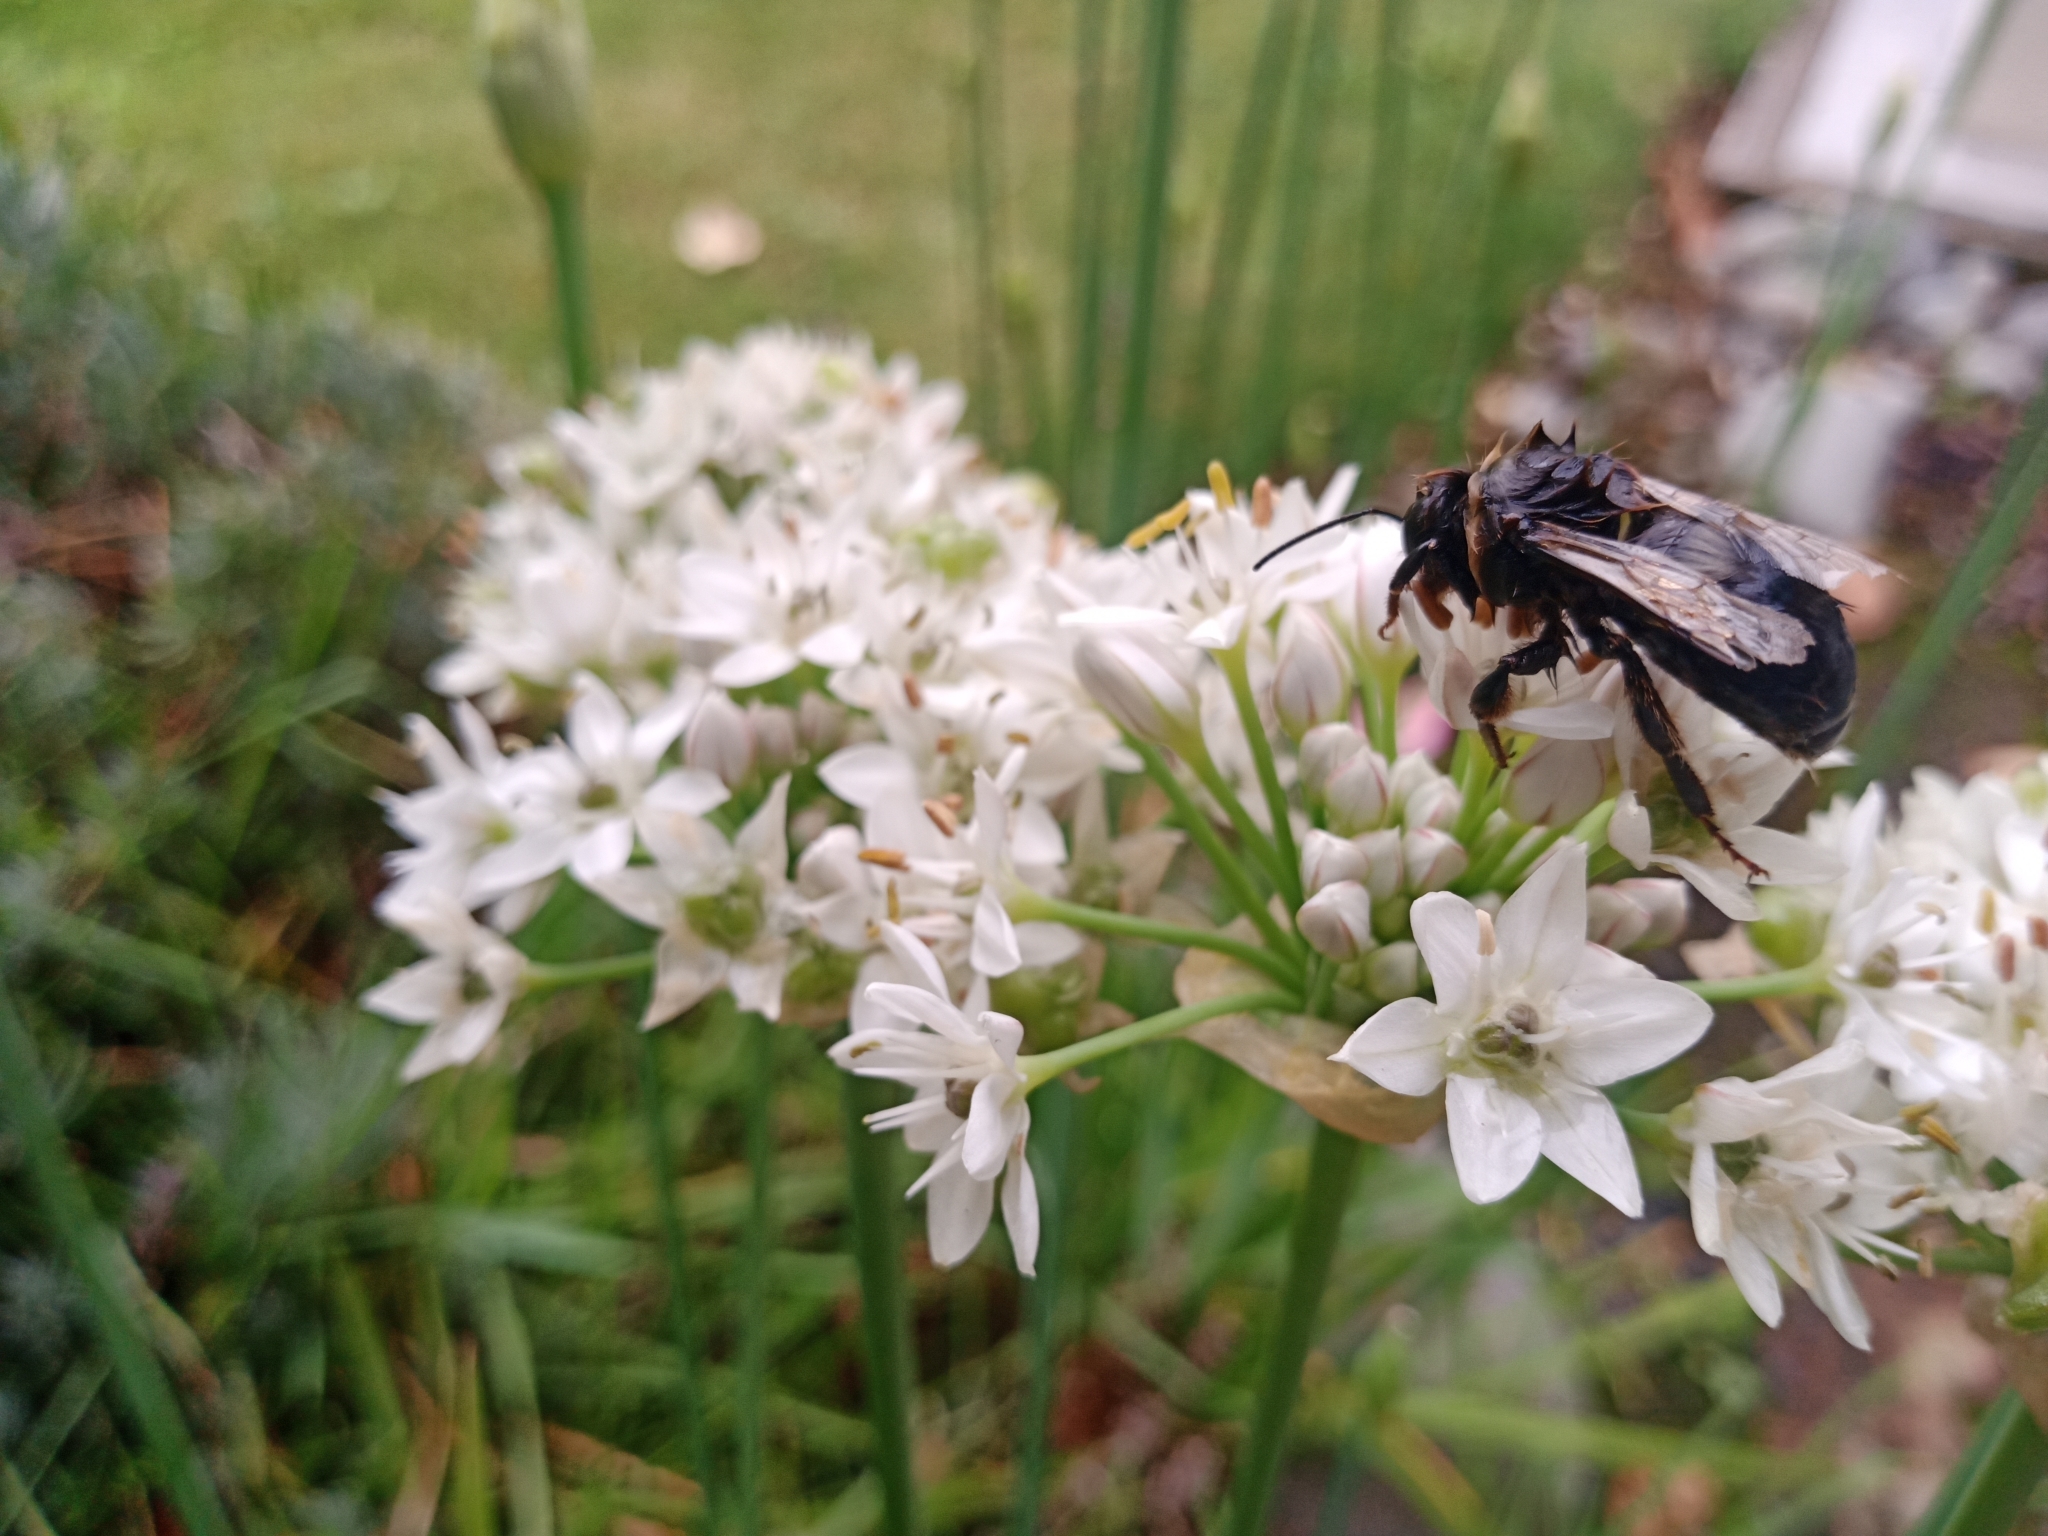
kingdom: Animalia
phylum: Arthropoda
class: Insecta
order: Hymenoptera
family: Apidae
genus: Bombus
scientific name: Bombus terrestris
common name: Buff-tailed bumblebee
